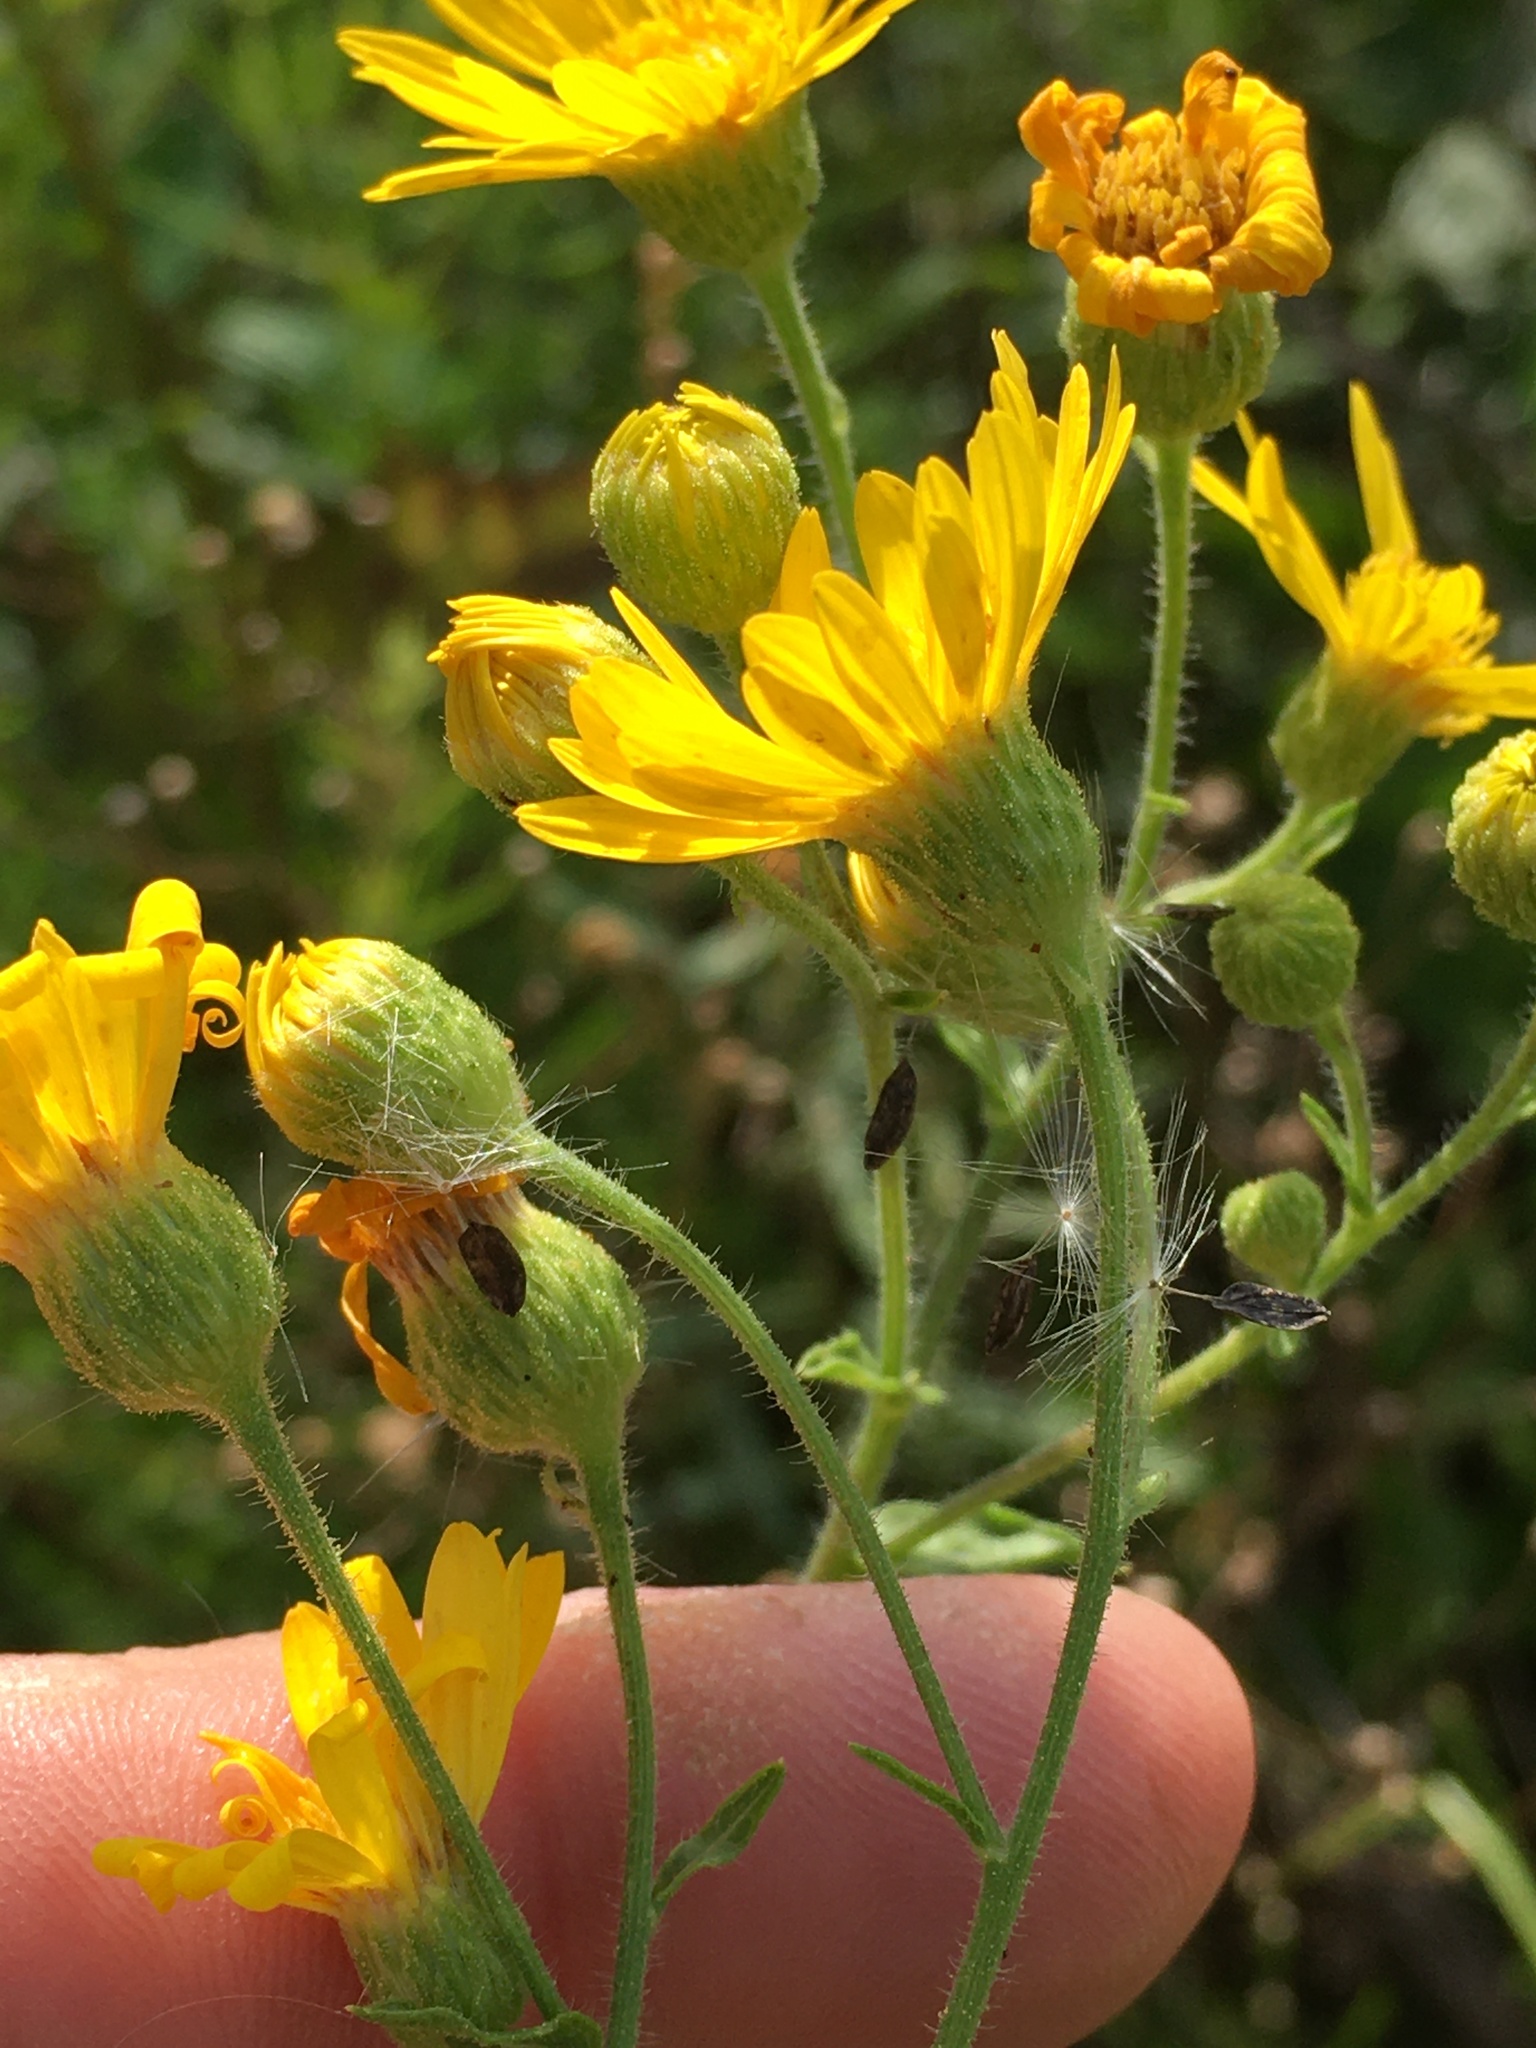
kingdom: Plantae
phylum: Tracheophyta
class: Magnoliopsida
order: Asterales
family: Asteraceae
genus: Heterotheca
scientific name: Heterotheca subaxillaris
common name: Camphorweed
